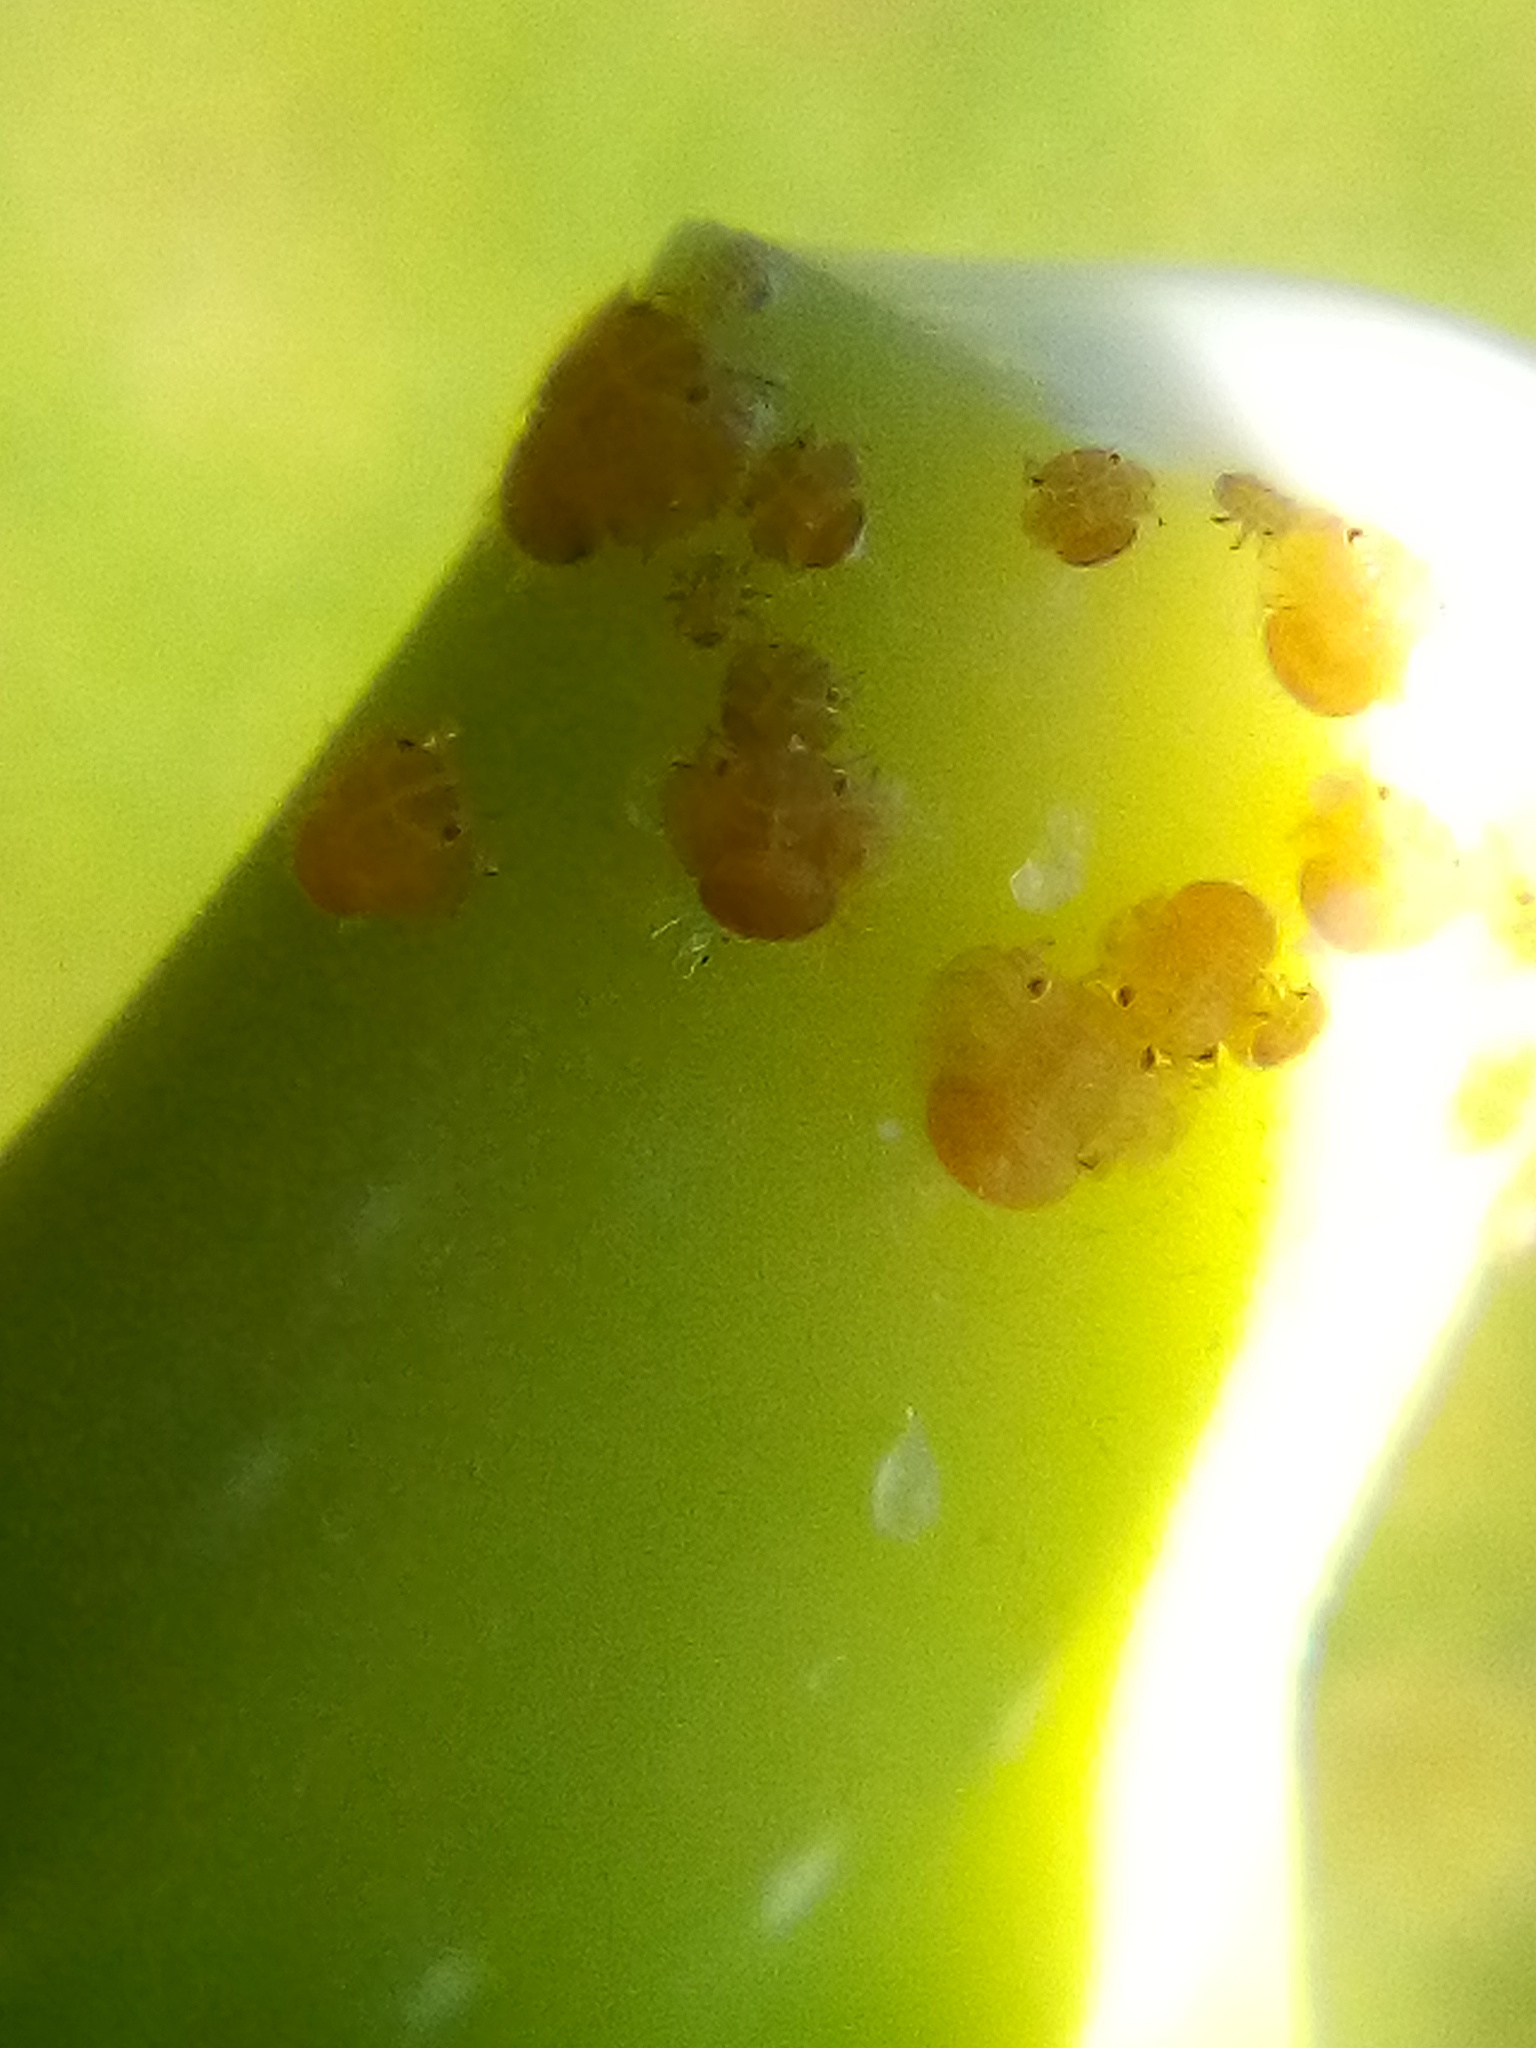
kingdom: Animalia
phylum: Arthropoda
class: Insecta
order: Hemiptera
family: Homotomidae
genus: Mycopsylla
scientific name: Mycopsylla obliqua
